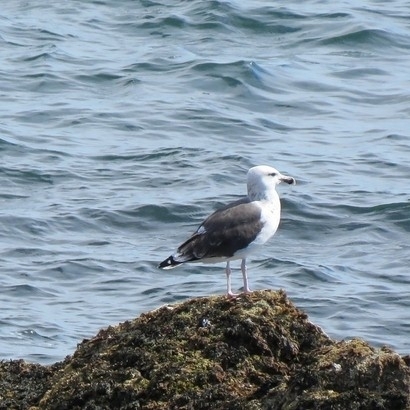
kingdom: Animalia
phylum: Chordata
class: Aves
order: Charadriiformes
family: Laridae
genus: Larus
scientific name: Larus marinus
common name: Great black-backed gull
